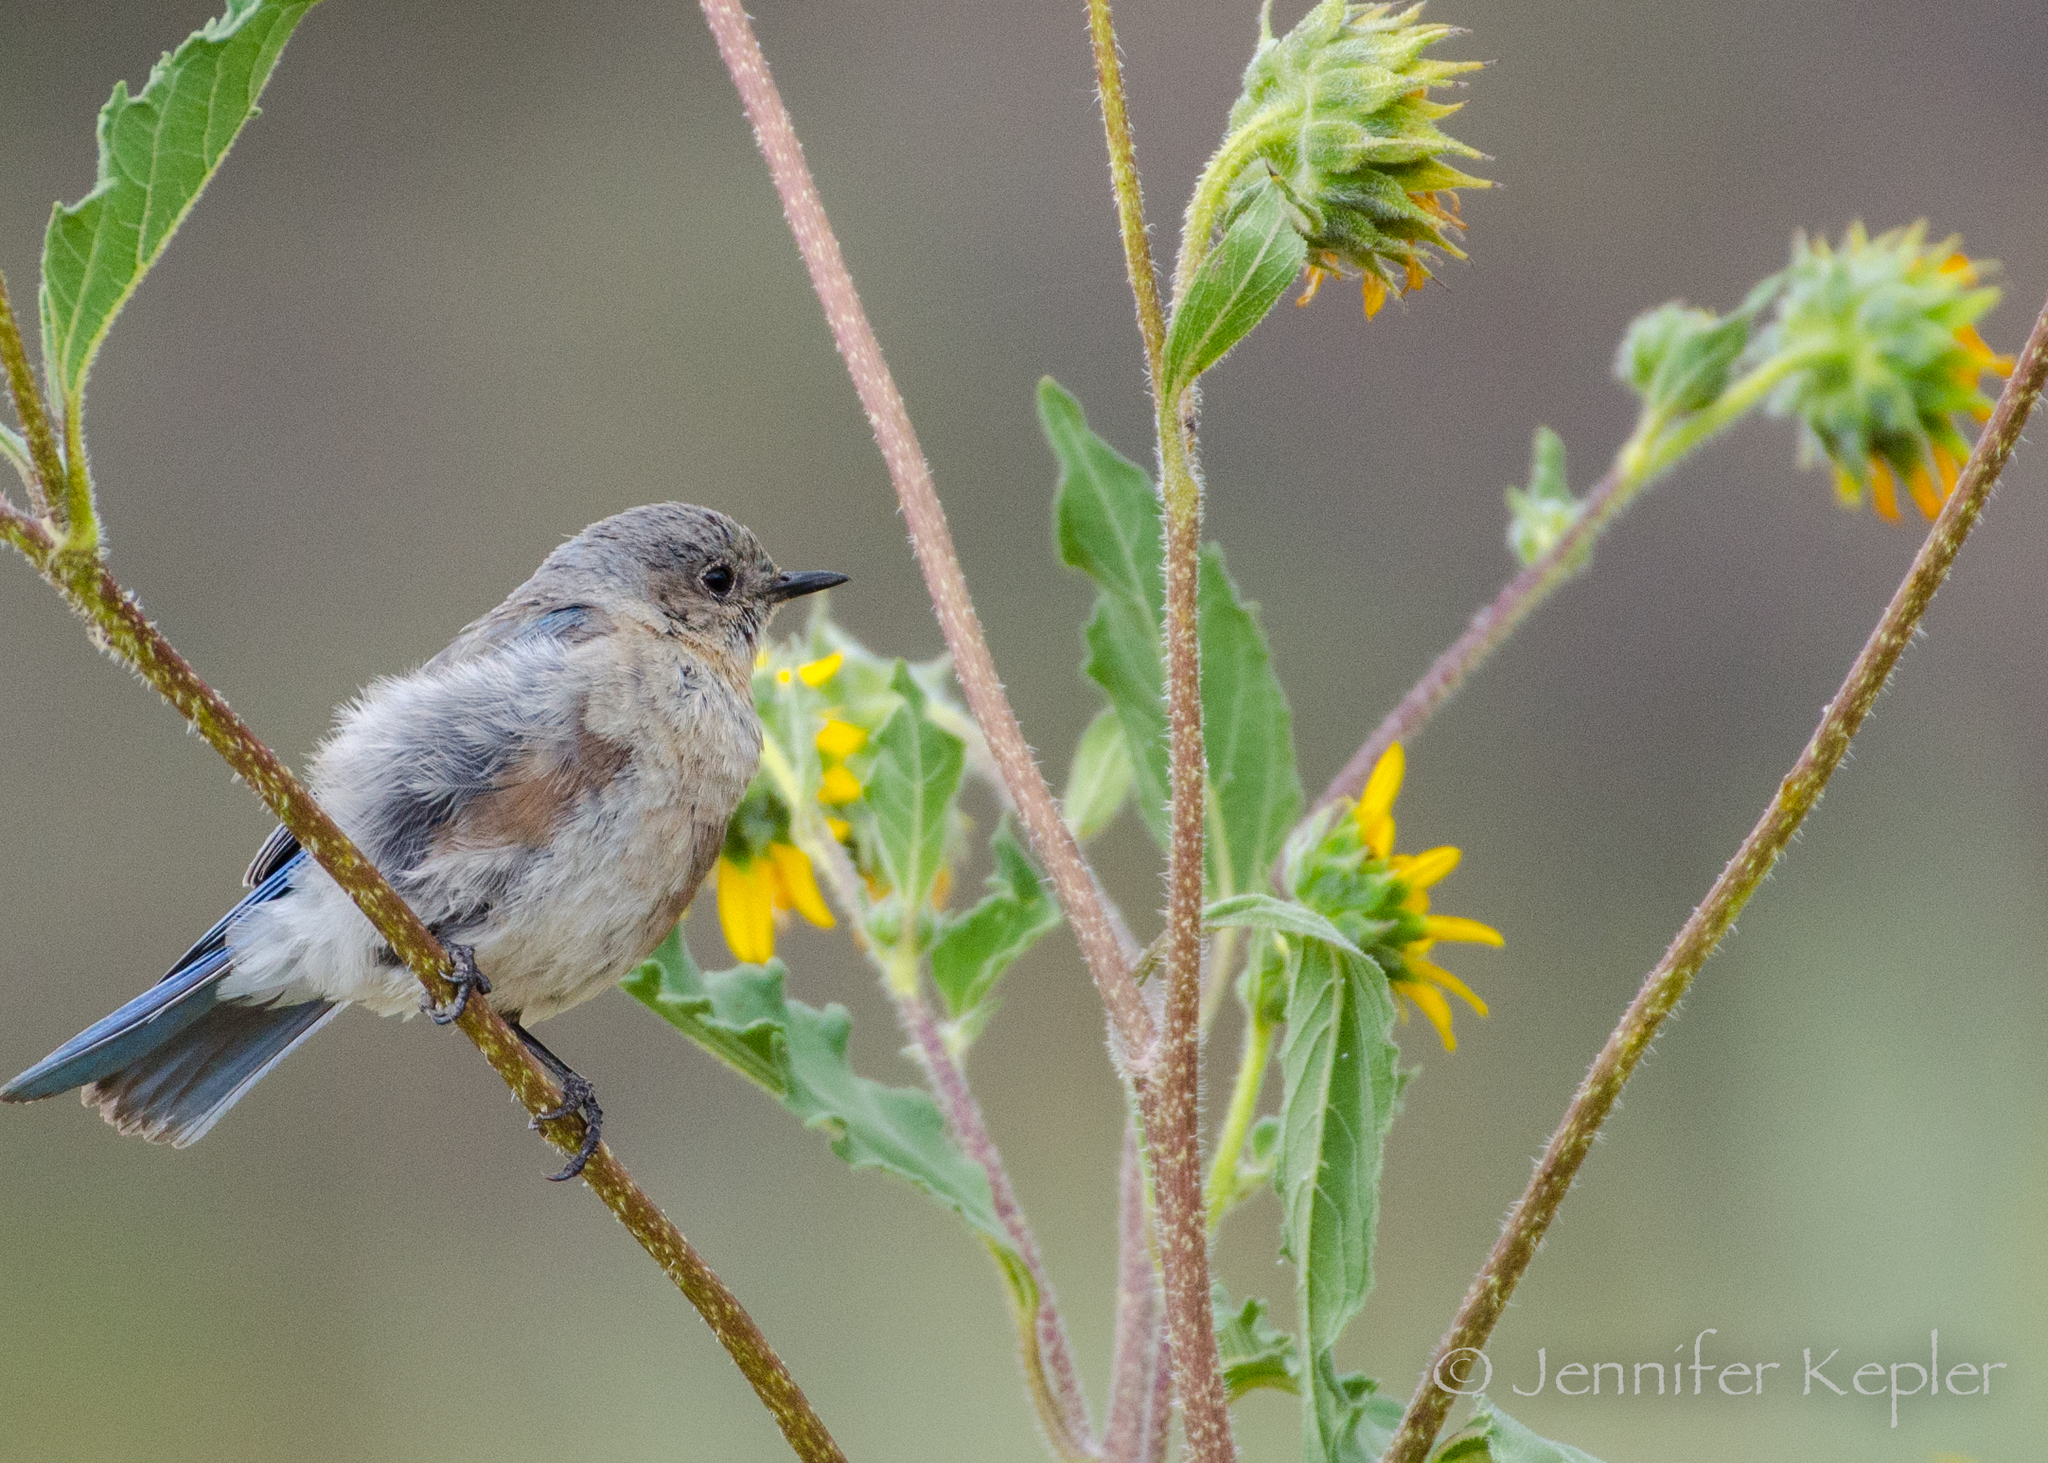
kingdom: Animalia
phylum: Chordata
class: Aves
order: Passeriformes
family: Turdidae
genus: Sialia
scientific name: Sialia mexicana
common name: Western bluebird
